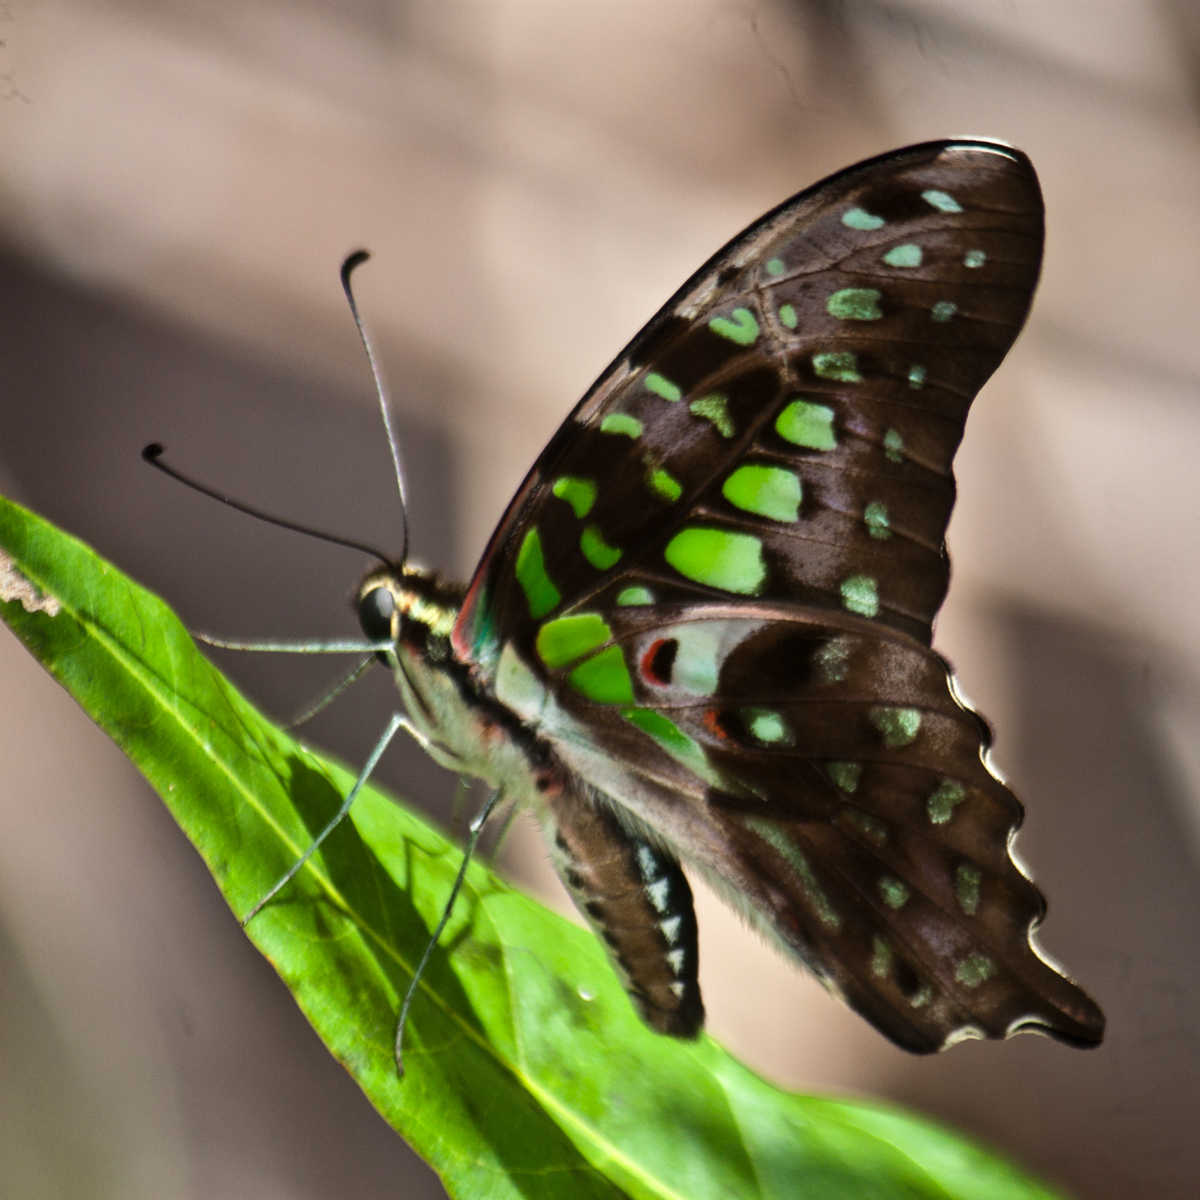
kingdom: Animalia
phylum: Arthropoda
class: Insecta
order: Lepidoptera
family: Papilionidae
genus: Graphium
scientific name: Graphium agamemnon
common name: Tailed jay
